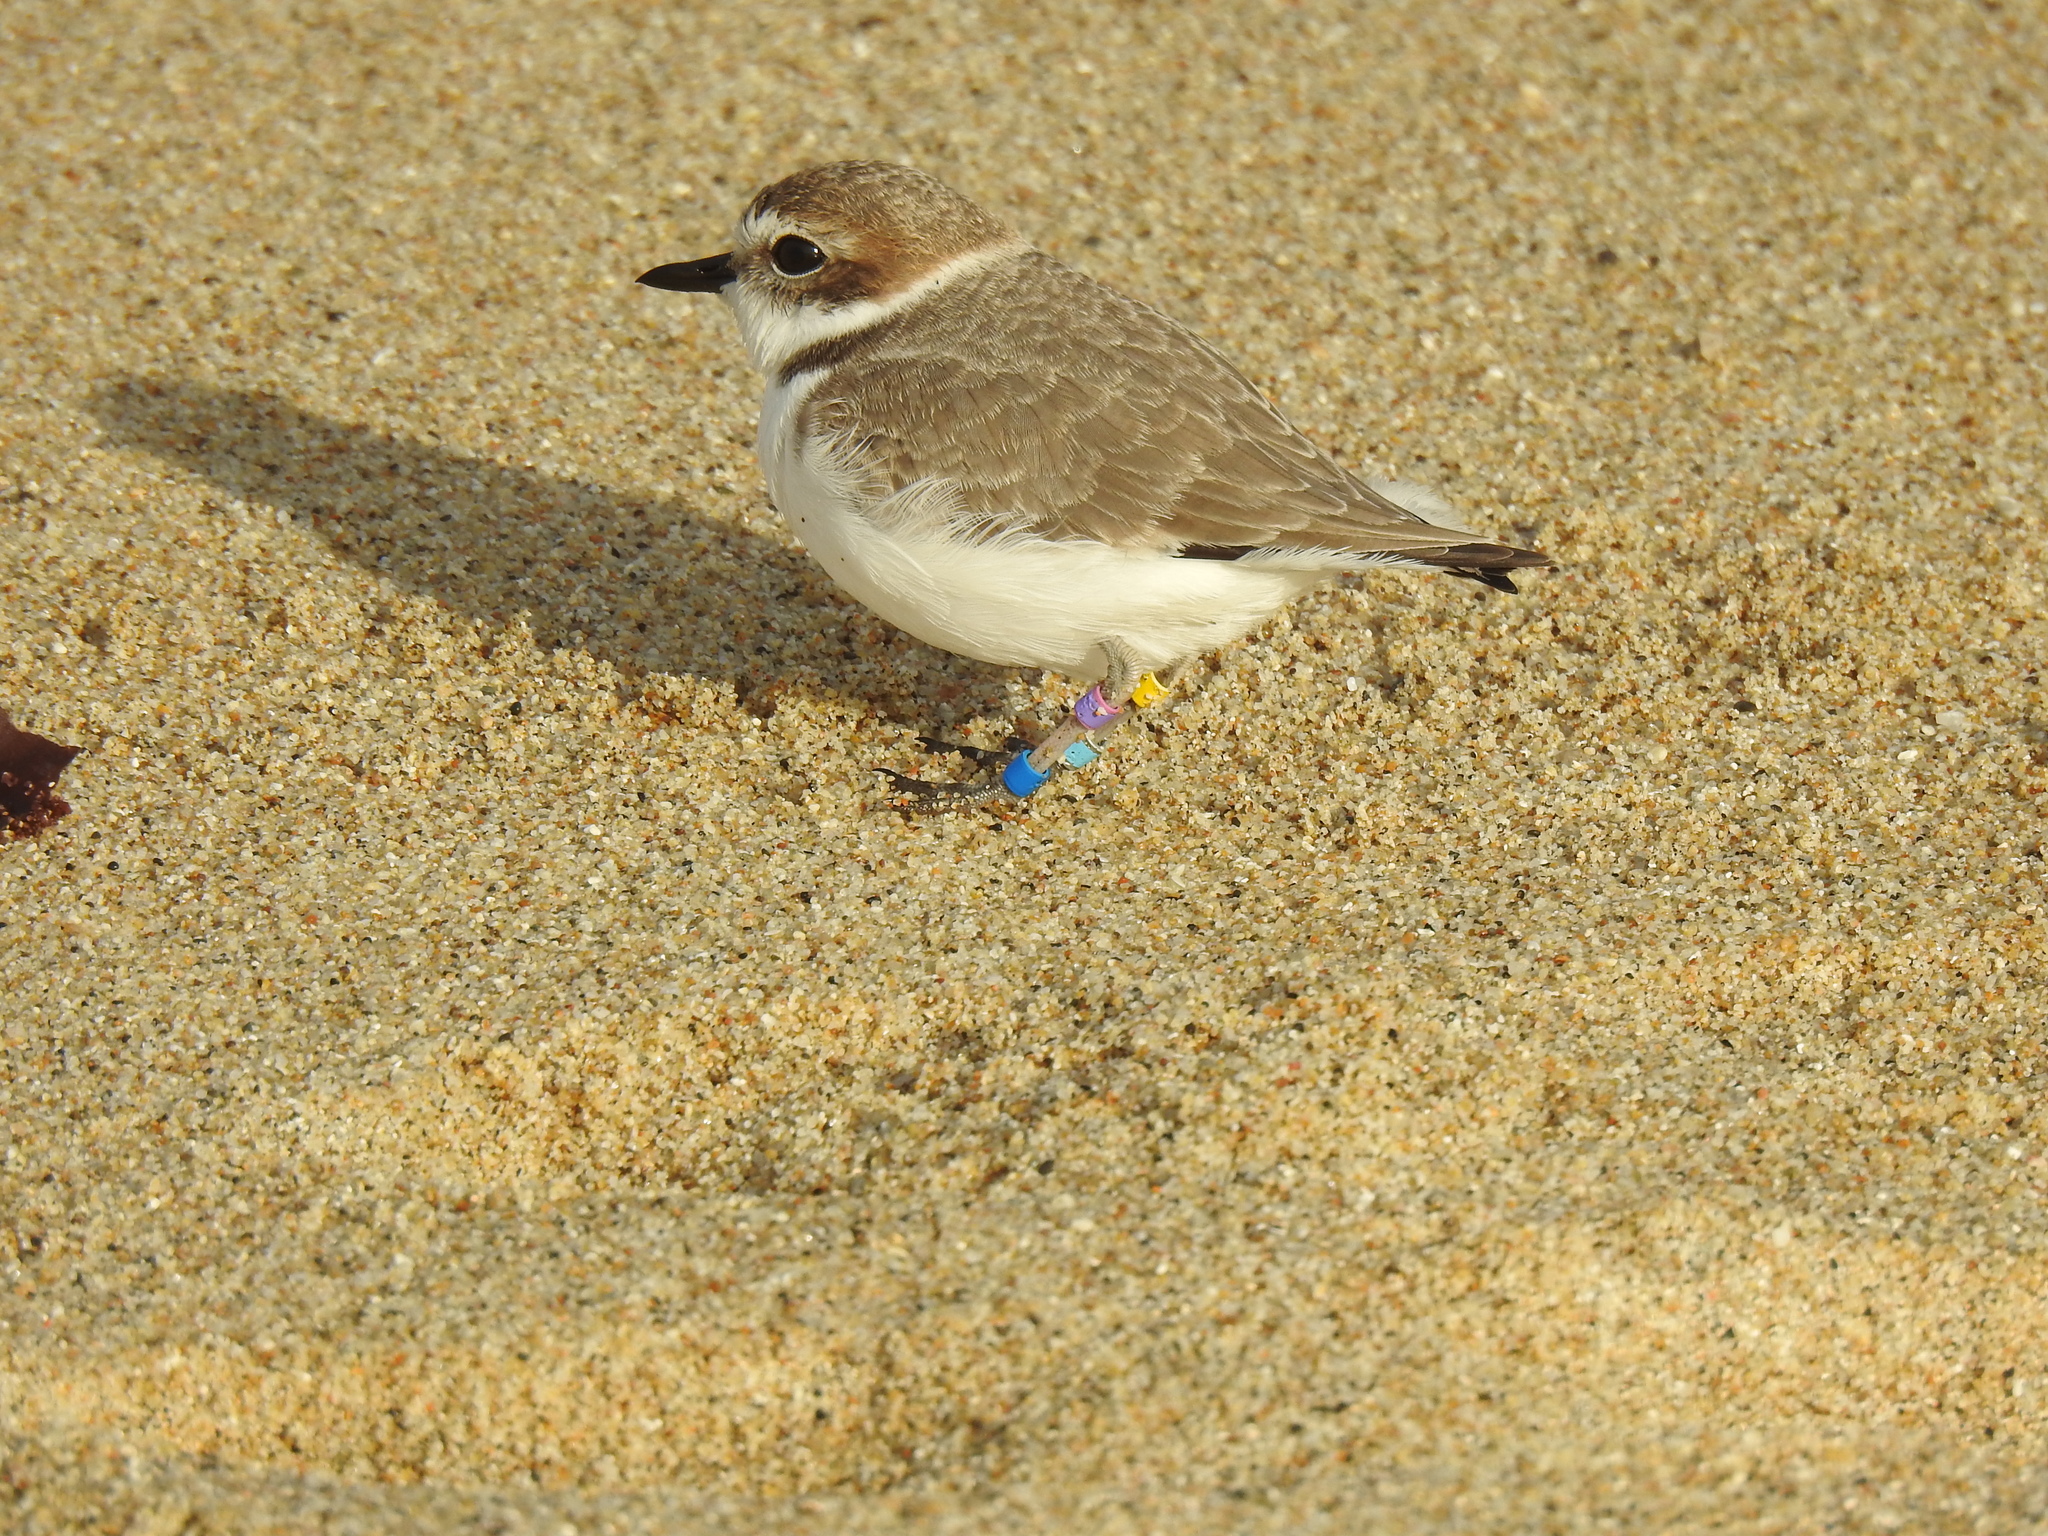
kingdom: Animalia
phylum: Chordata
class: Aves
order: Charadriiformes
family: Charadriidae
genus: Anarhynchus
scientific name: Anarhynchus
